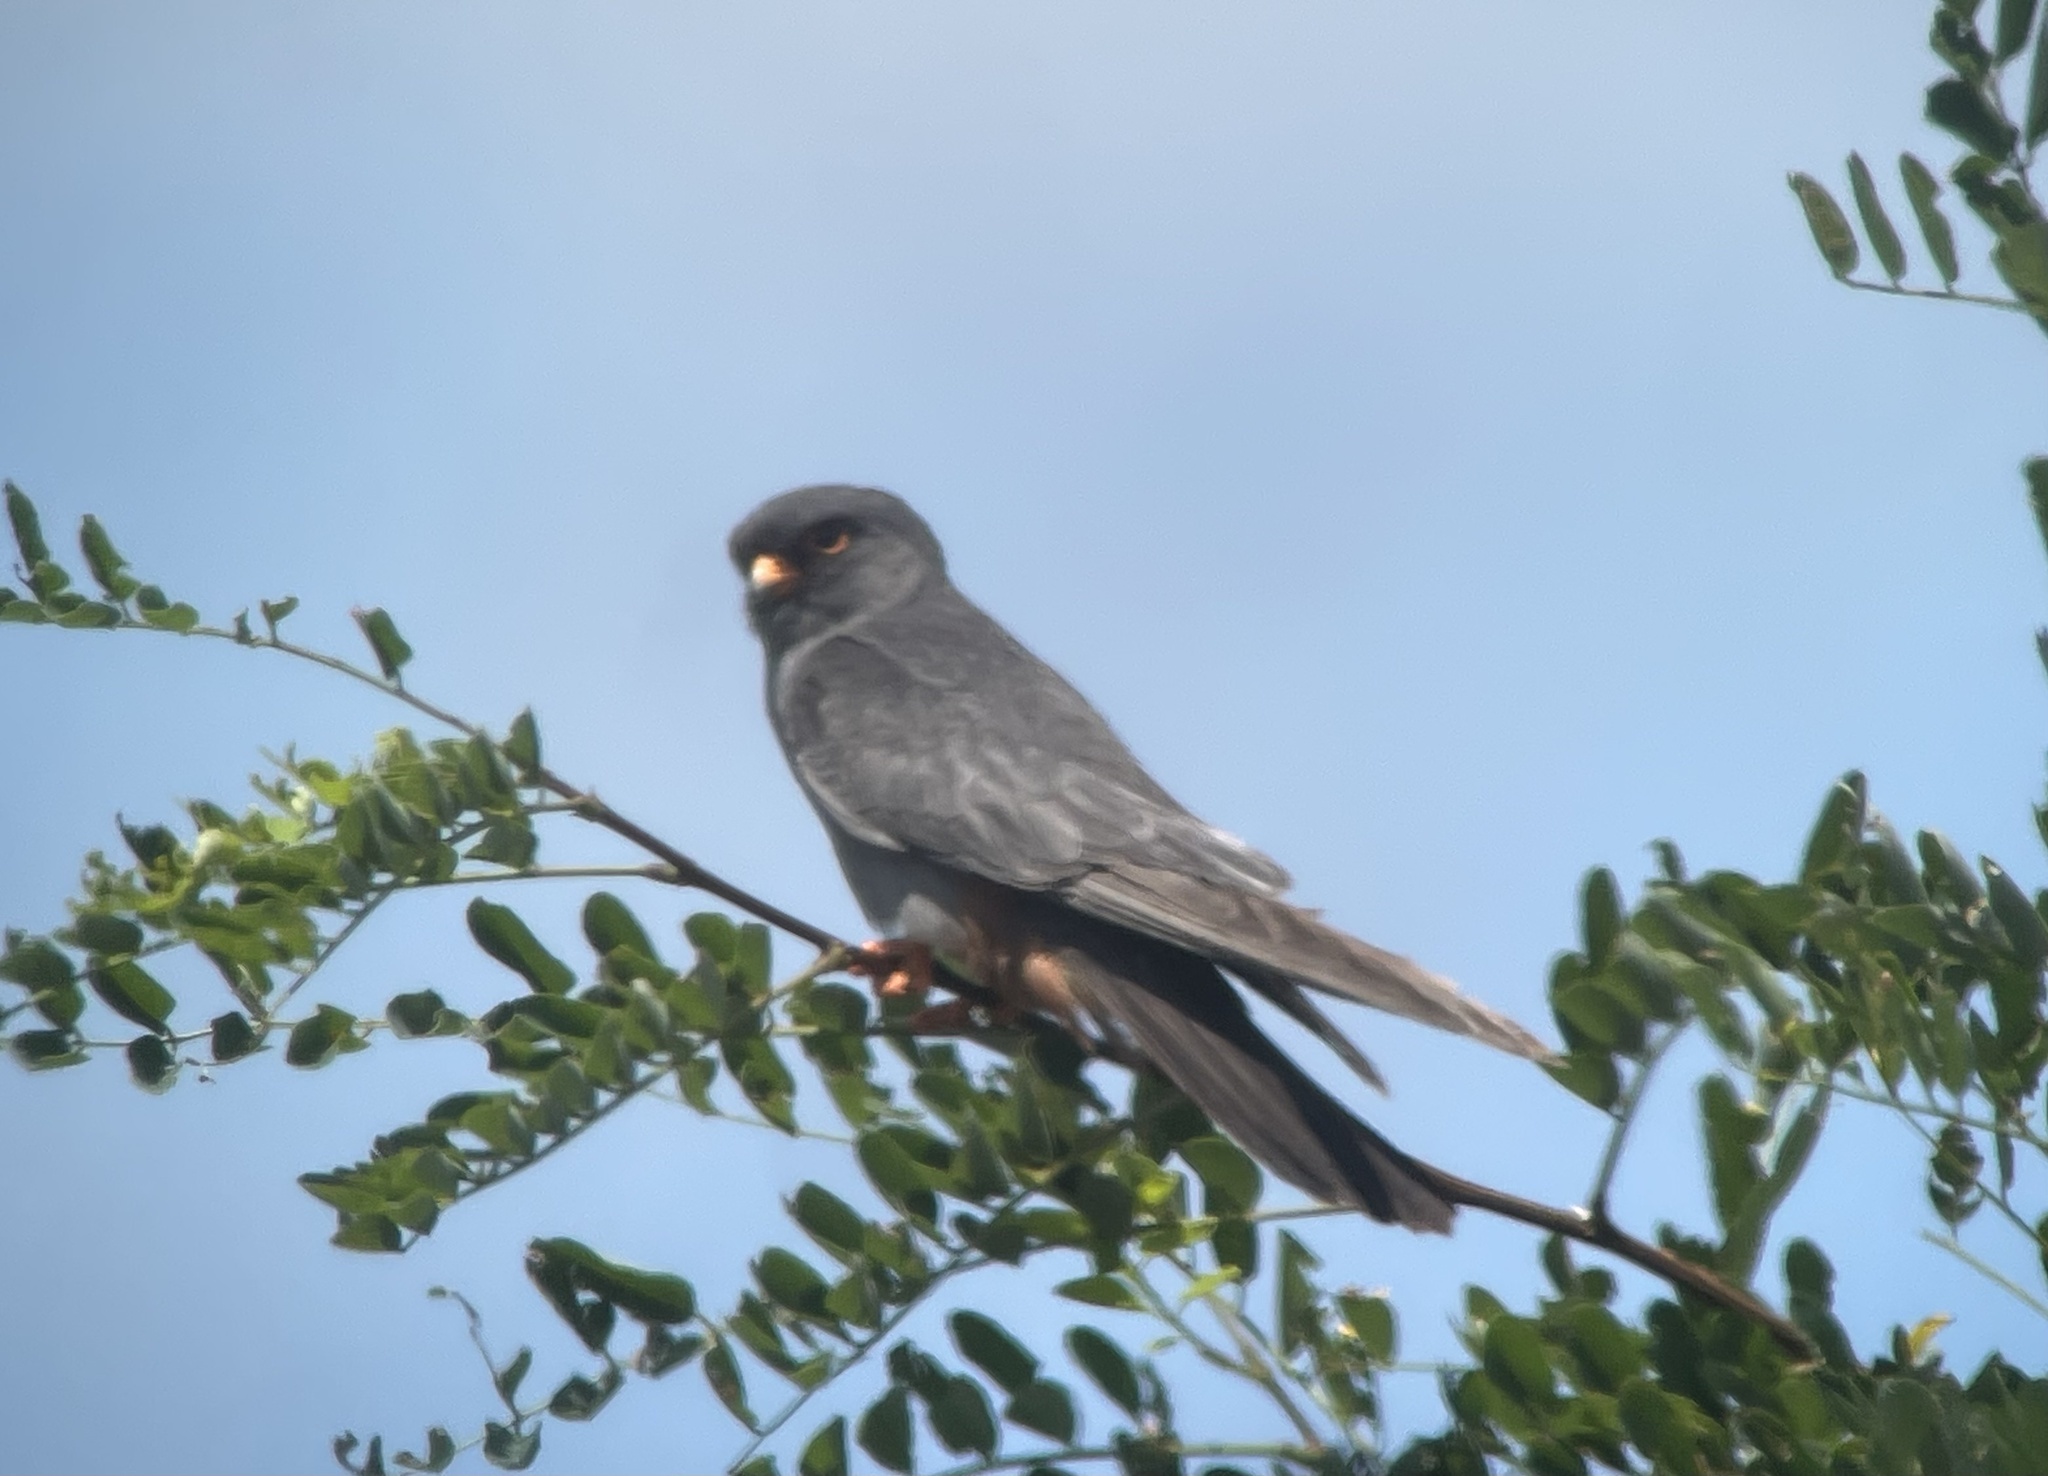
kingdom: Animalia
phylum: Chordata
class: Aves
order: Falconiformes
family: Falconidae
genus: Falco
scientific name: Falco vespertinus
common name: Red-footed falcon
